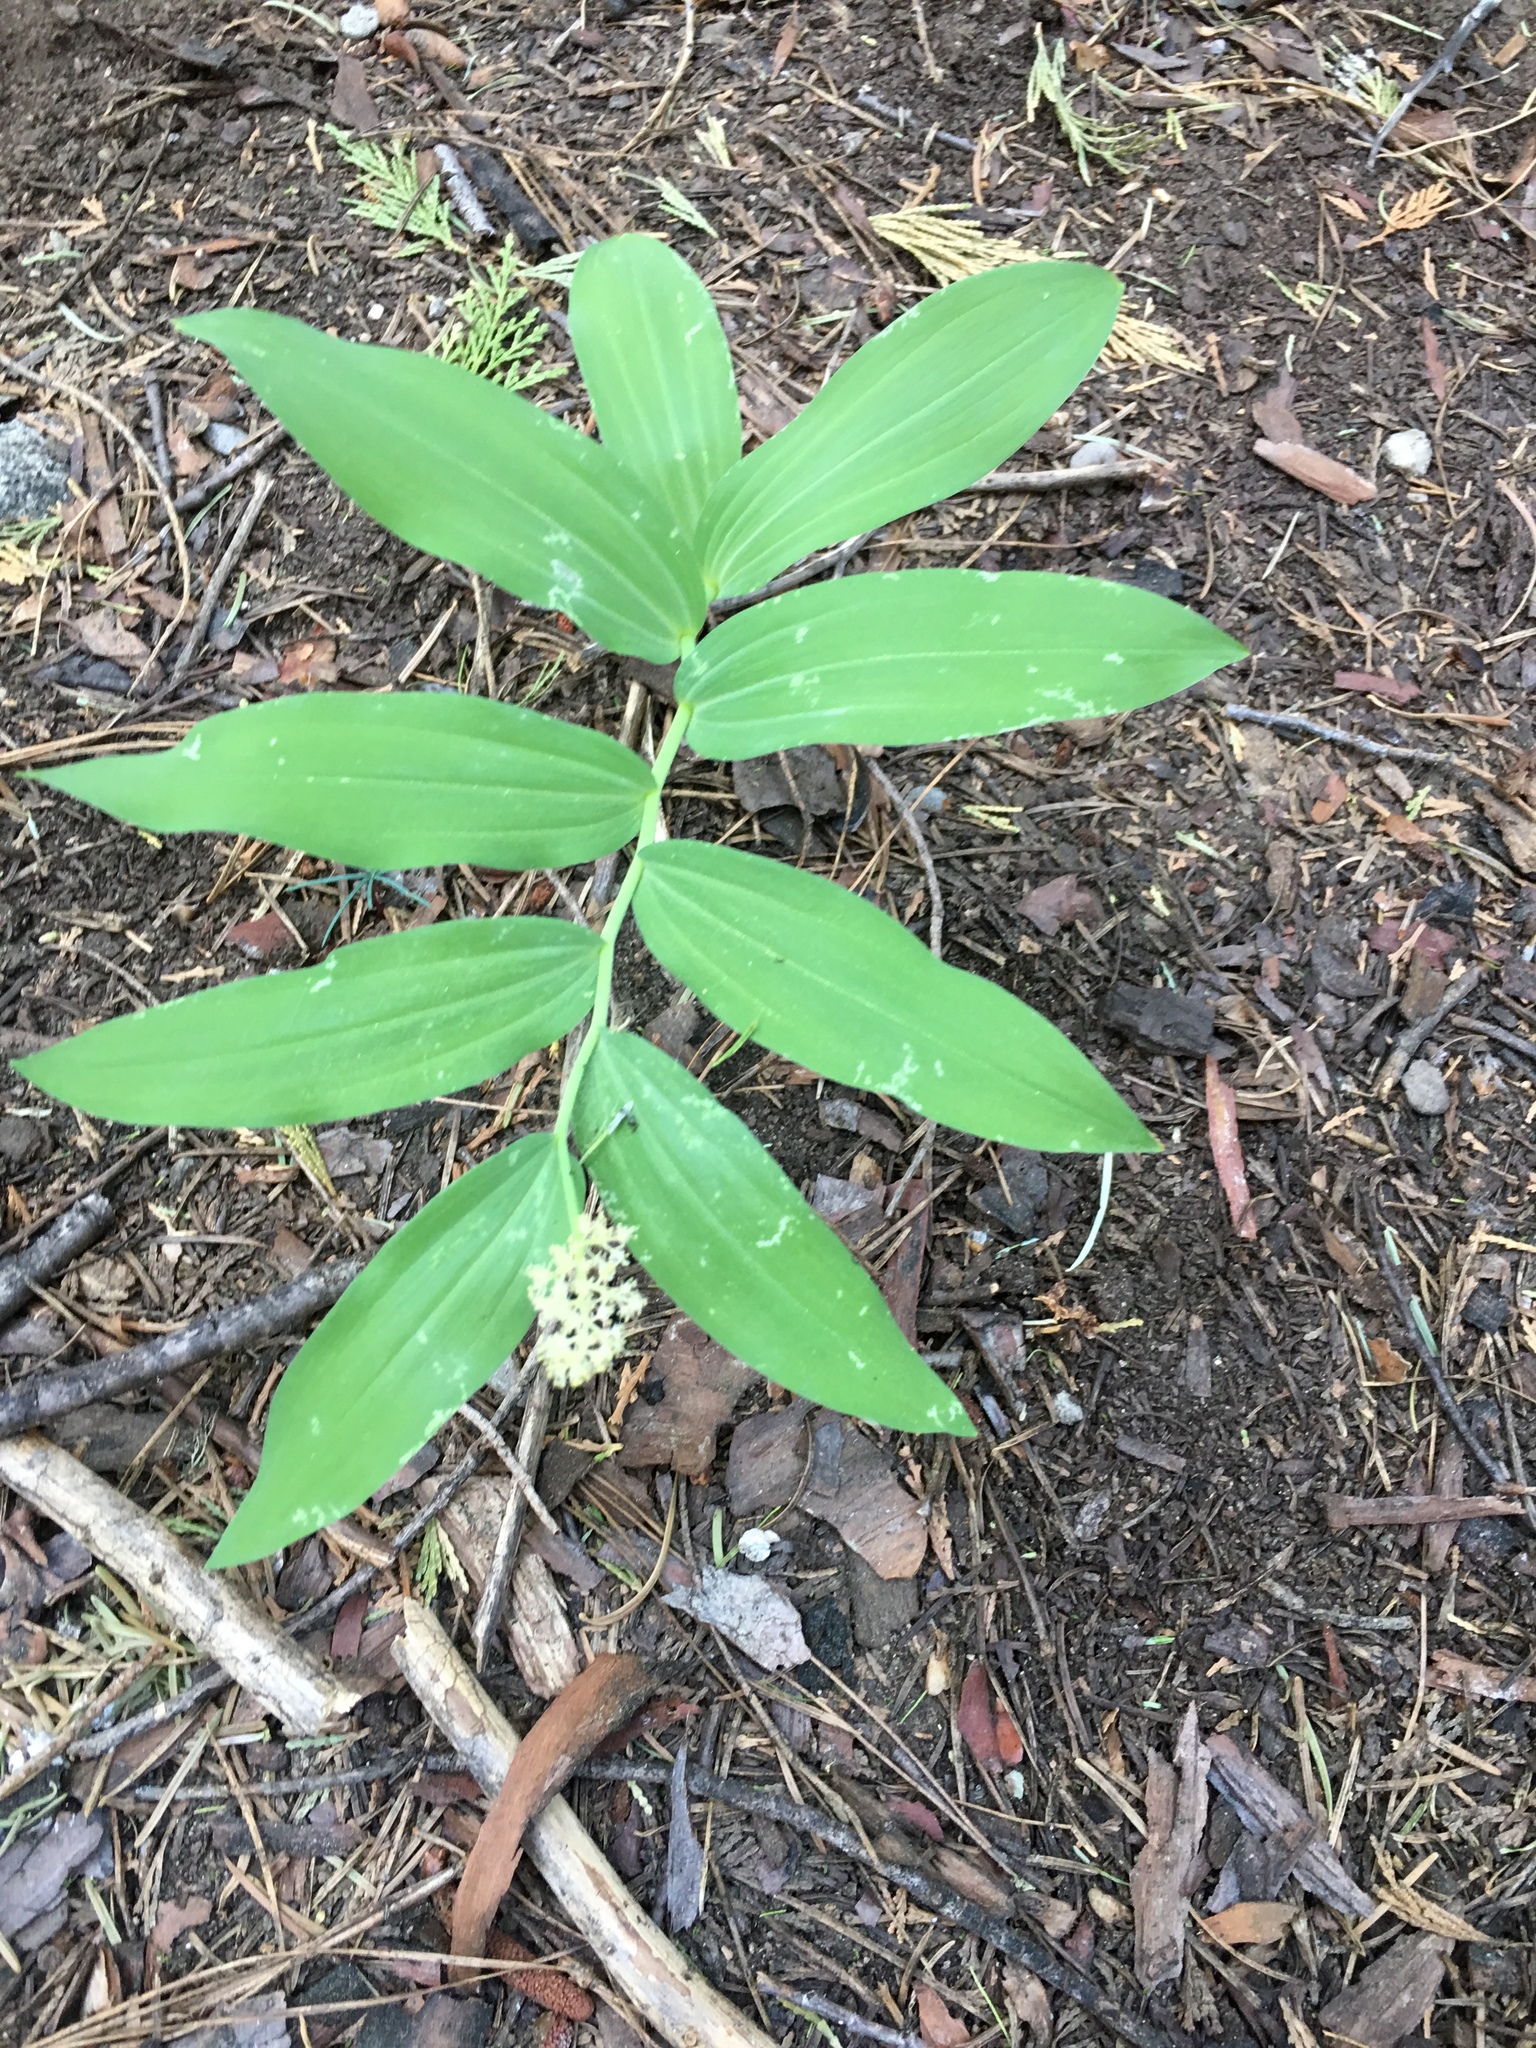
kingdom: Plantae
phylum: Tracheophyta
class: Liliopsida
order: Asparagales
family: Asparagaceae
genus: Maianthemum
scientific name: Maianthemum racemosum
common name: False spikenard
